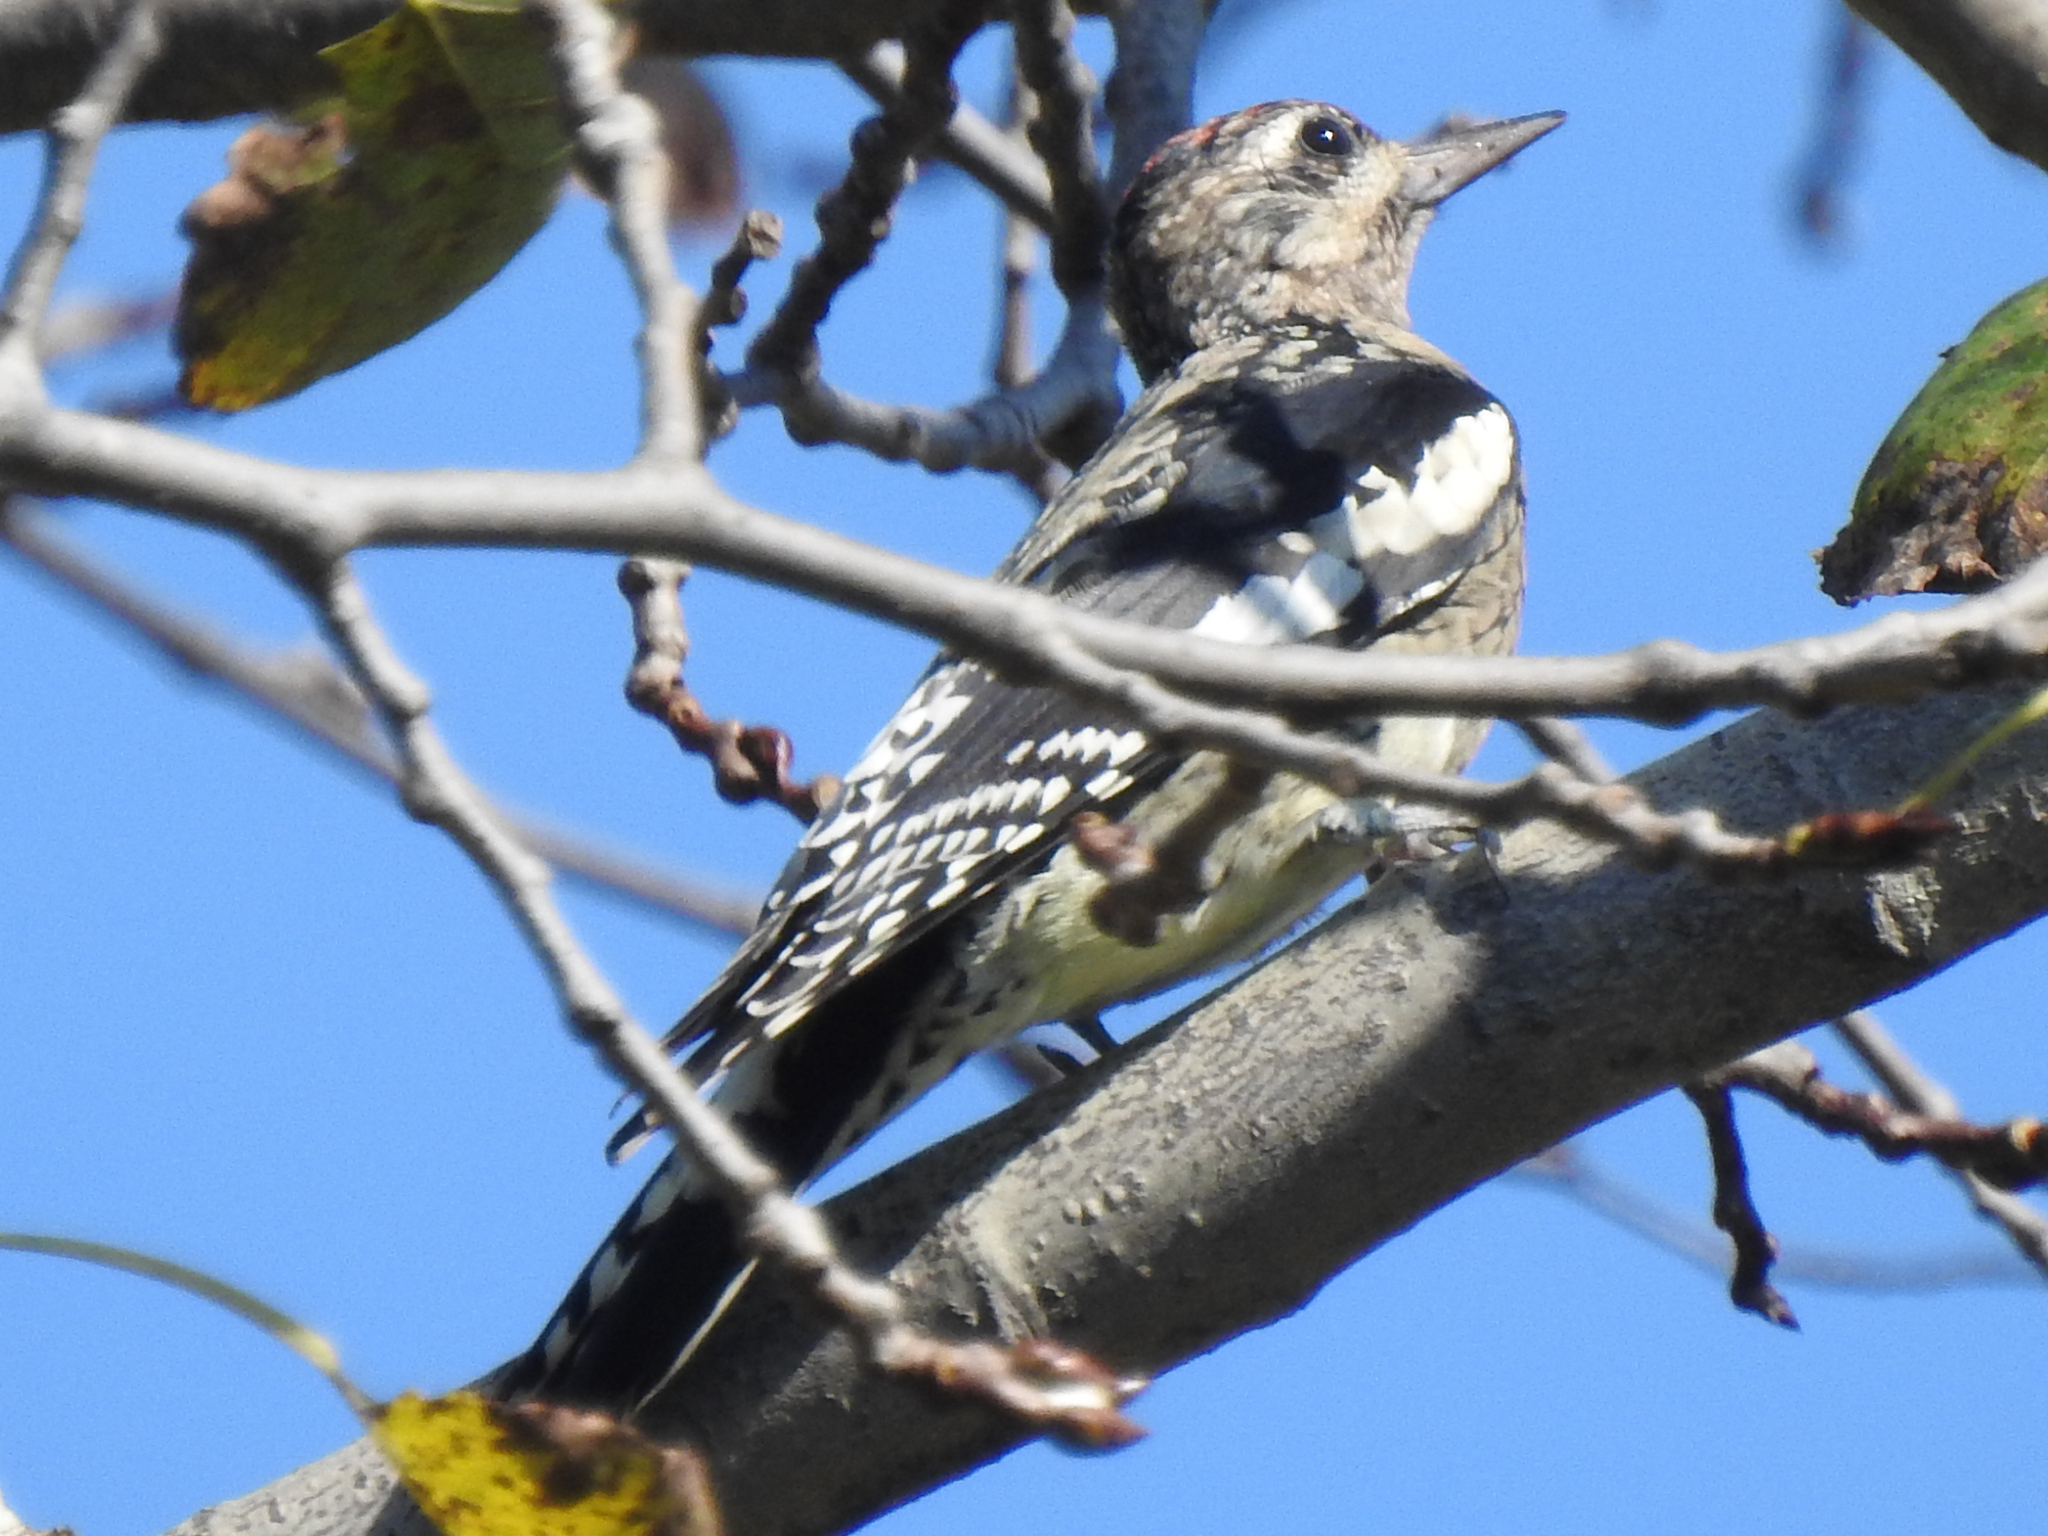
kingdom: Animalia
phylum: Chordata
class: Aves
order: Piciformes
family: Picidae
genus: Sphyrapicus
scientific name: Sphyrapicus varius
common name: Yellow-bellied sapsucker
